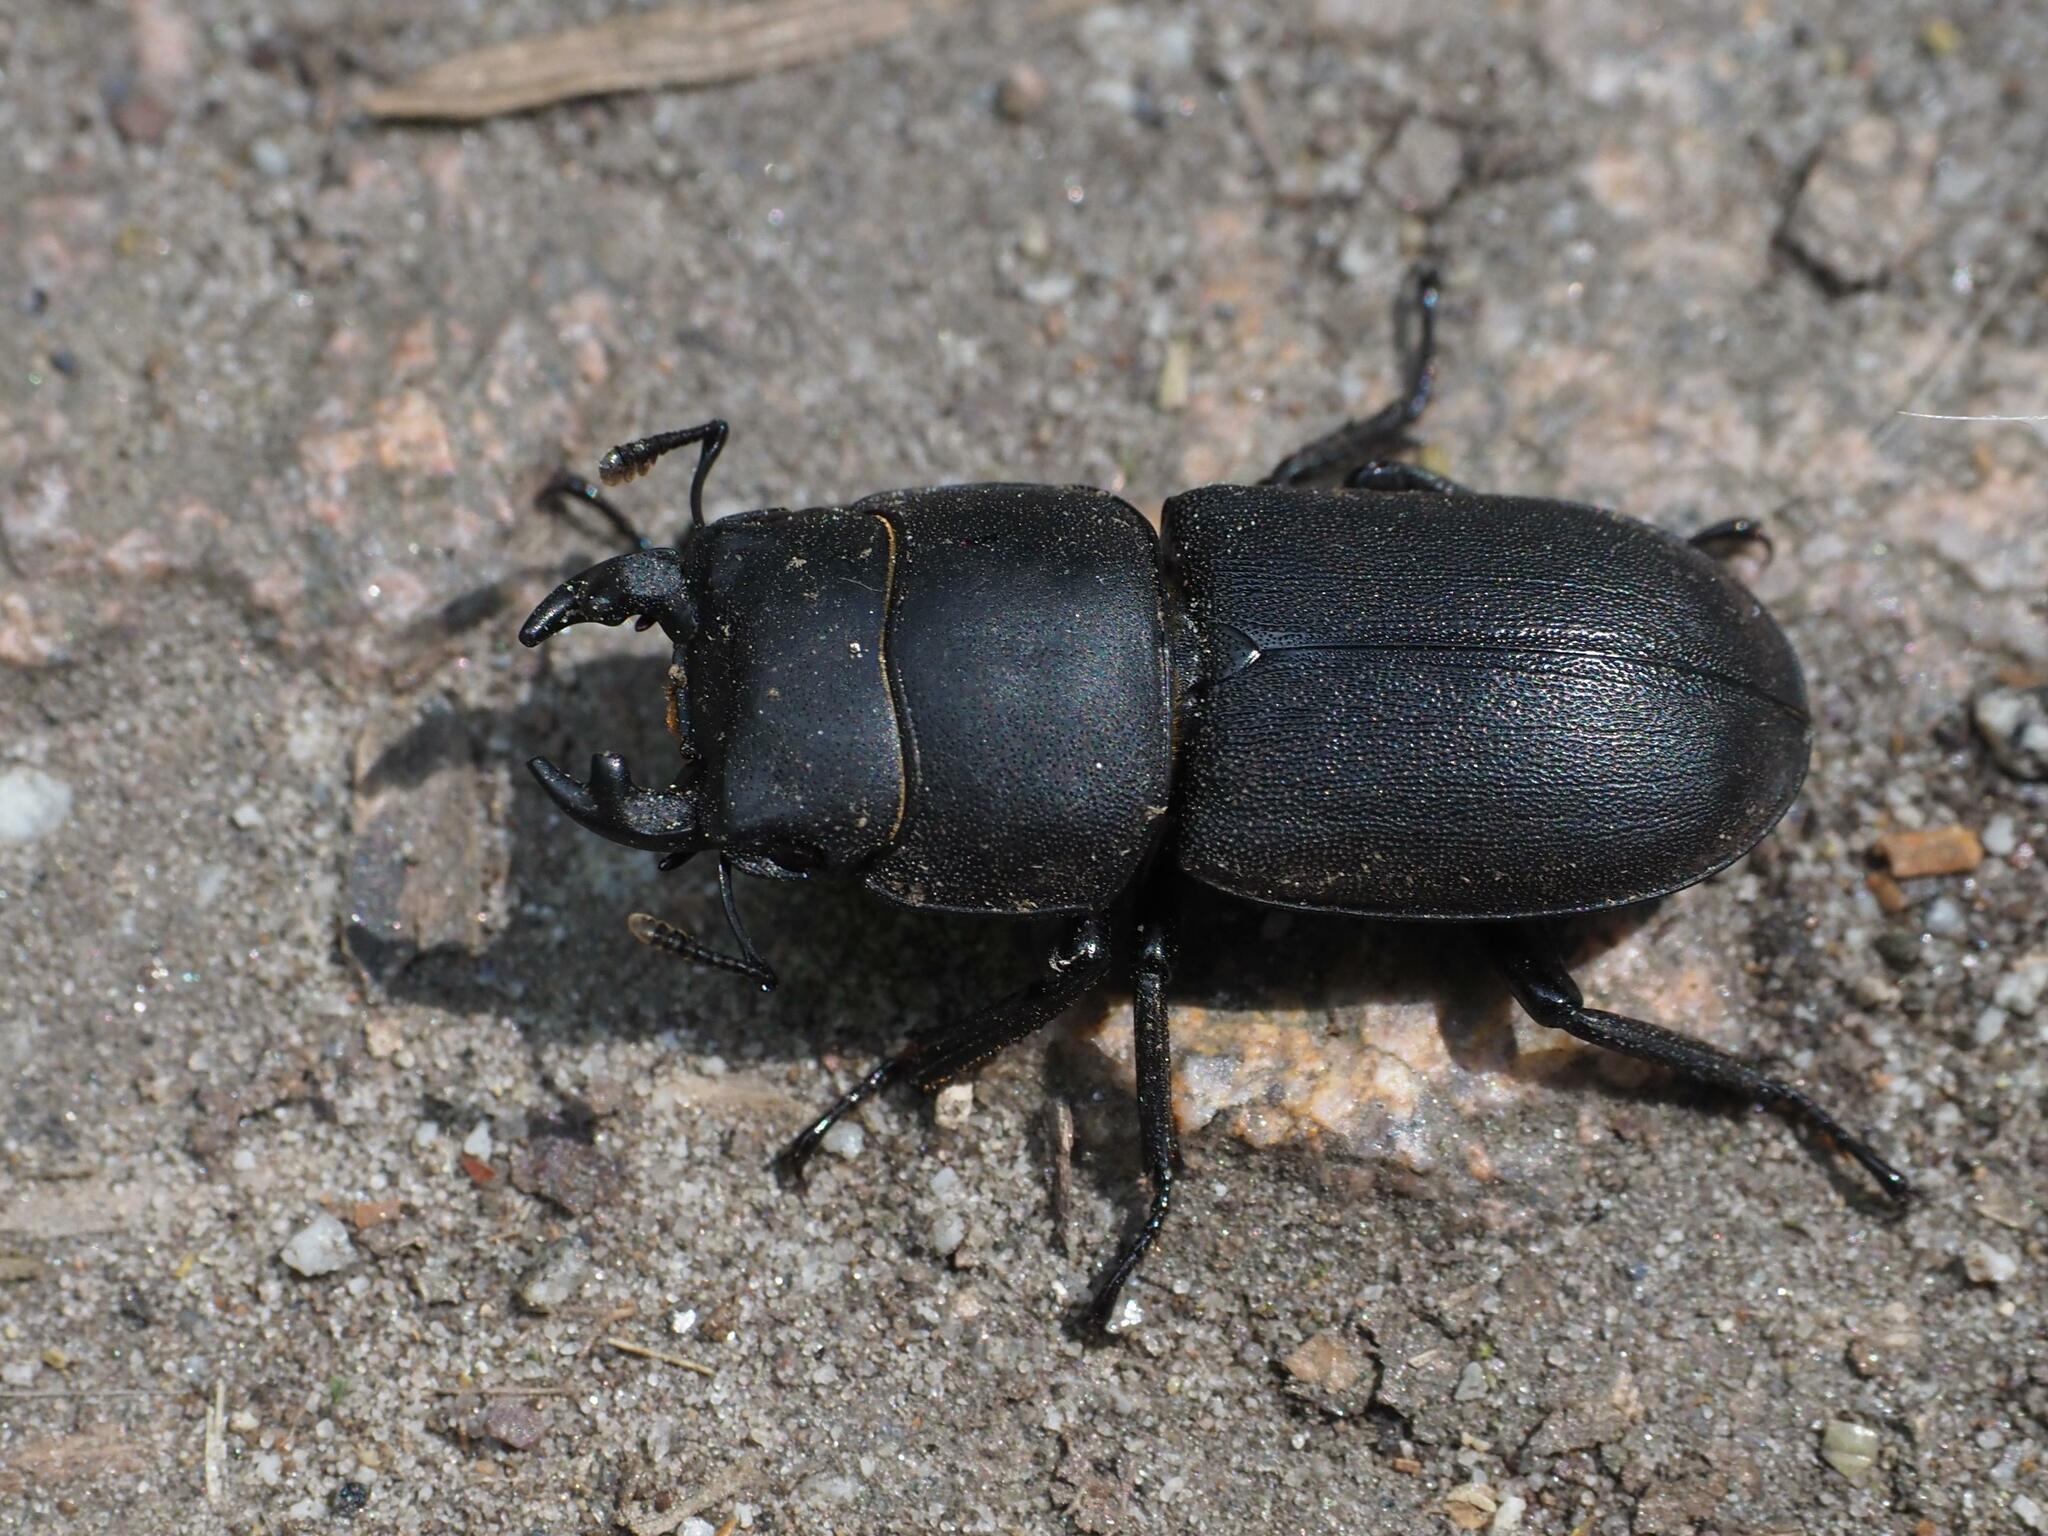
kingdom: Animalia
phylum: Arthropoda
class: Insecta
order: Coleoptera
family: Lucanidae
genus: Dorcus
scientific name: Dorcus parallelipipedus
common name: Lesser stag beetle
